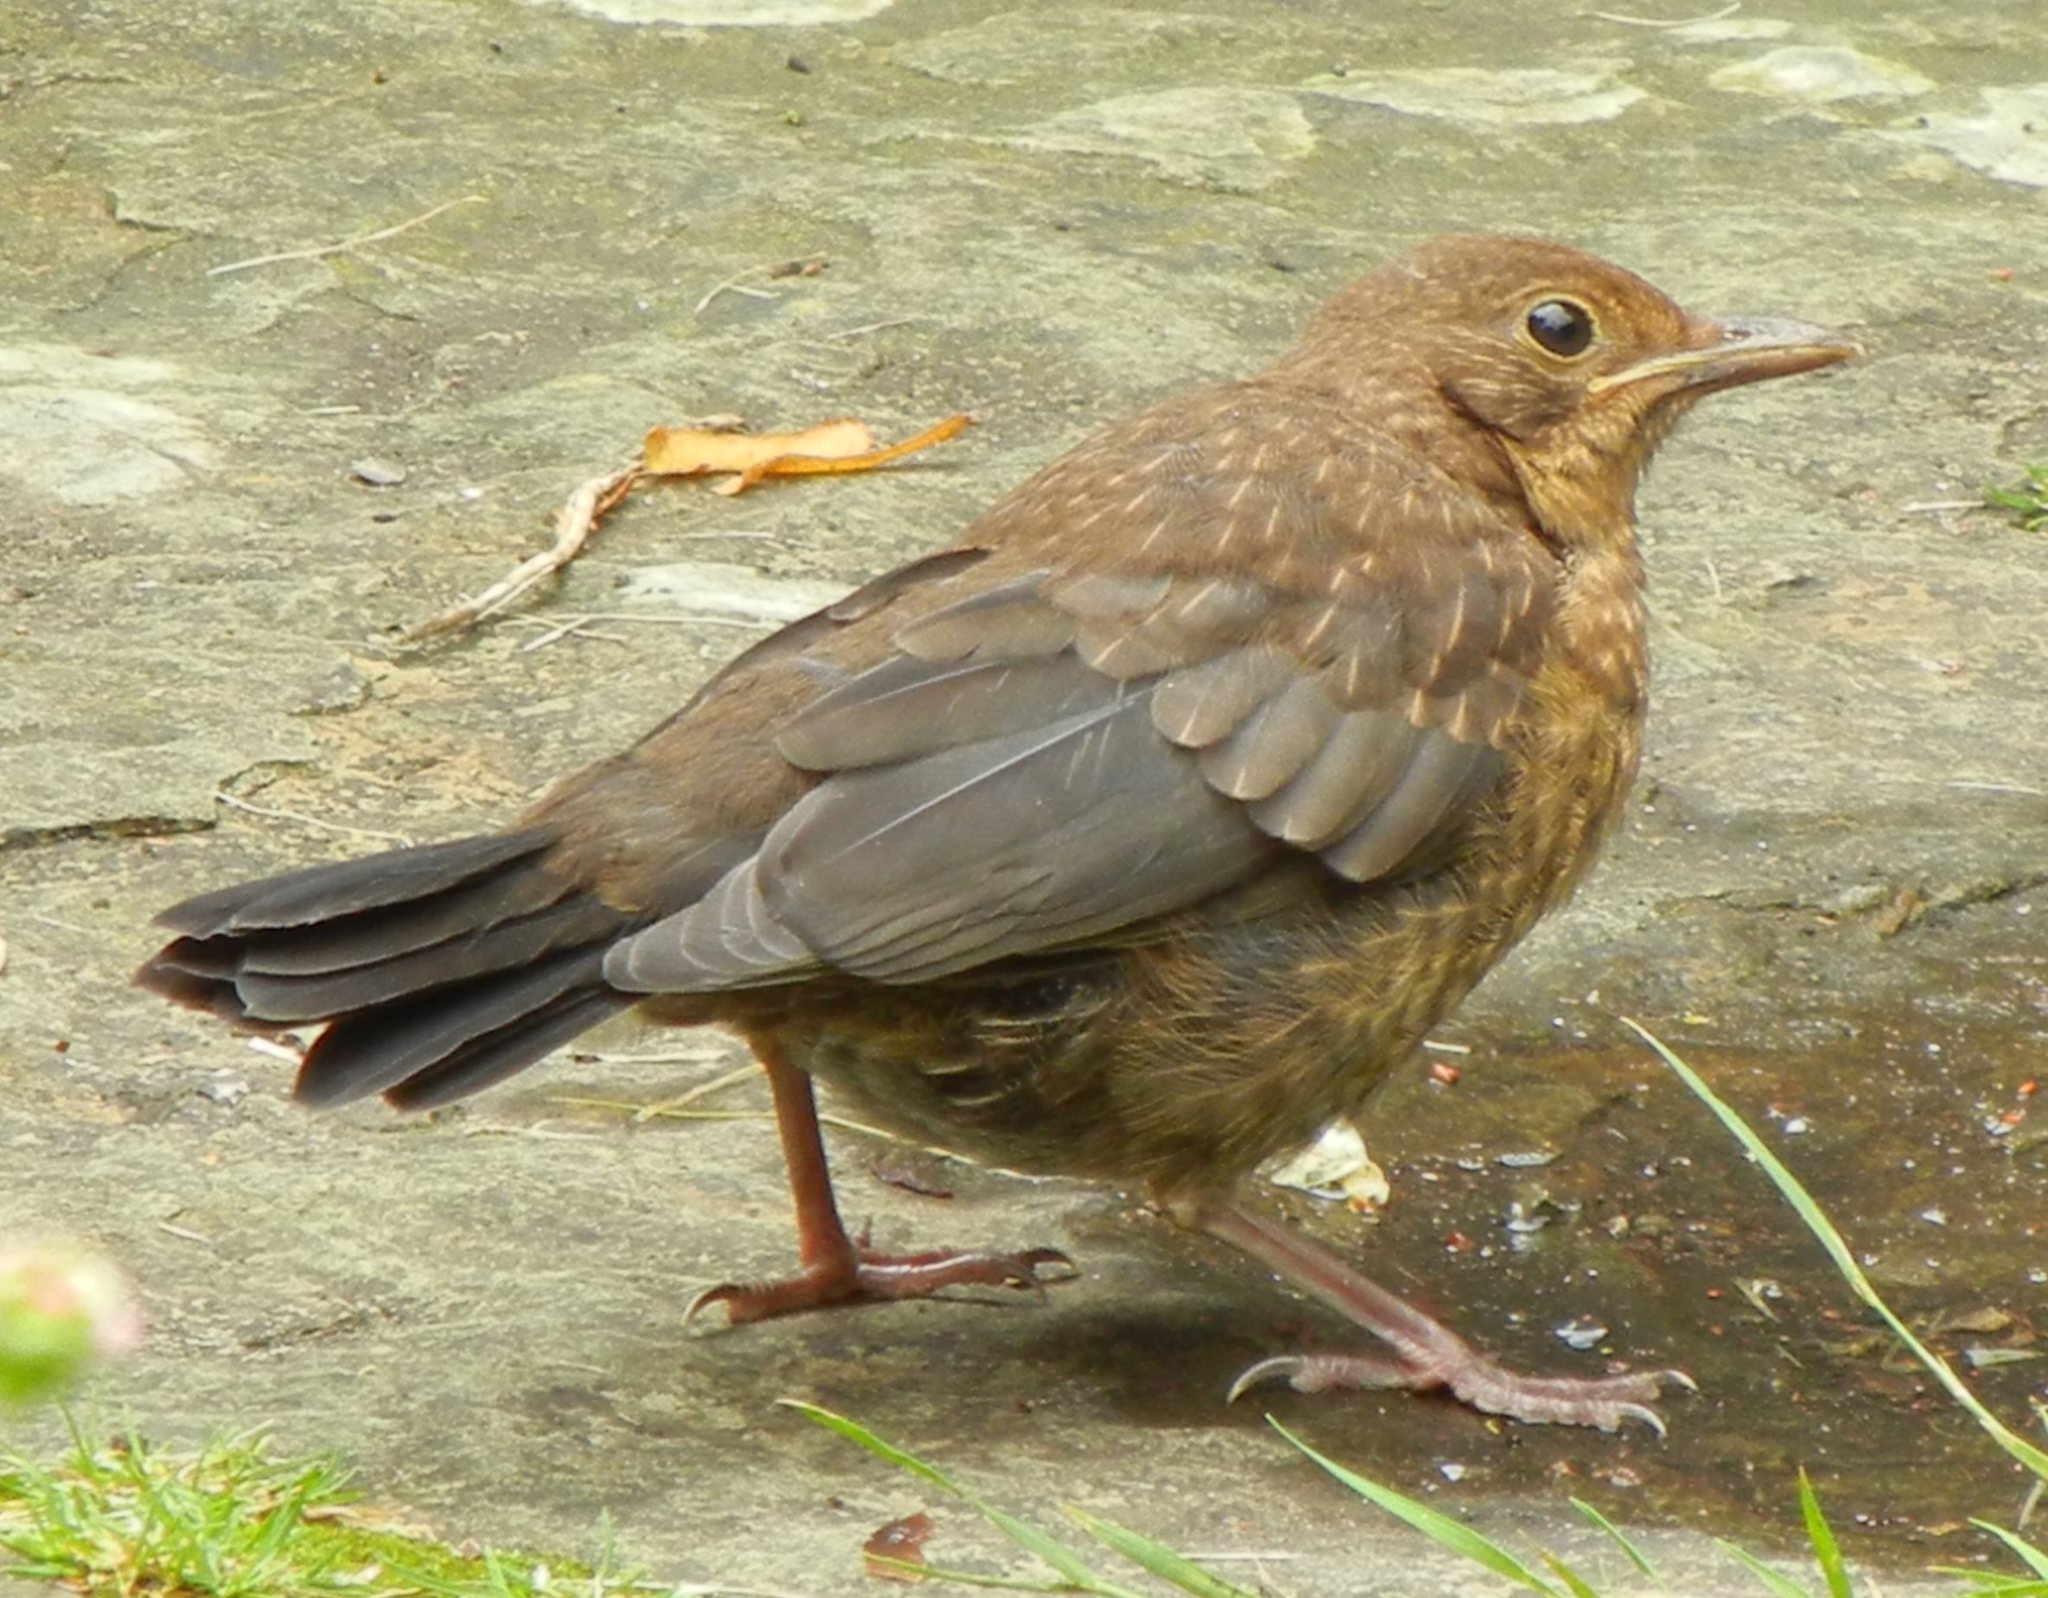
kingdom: Animalia
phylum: Chordata
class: Aves
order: Passeriformes
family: Turdidae
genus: Turdus
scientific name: Turdus merula
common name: Common blackbird
